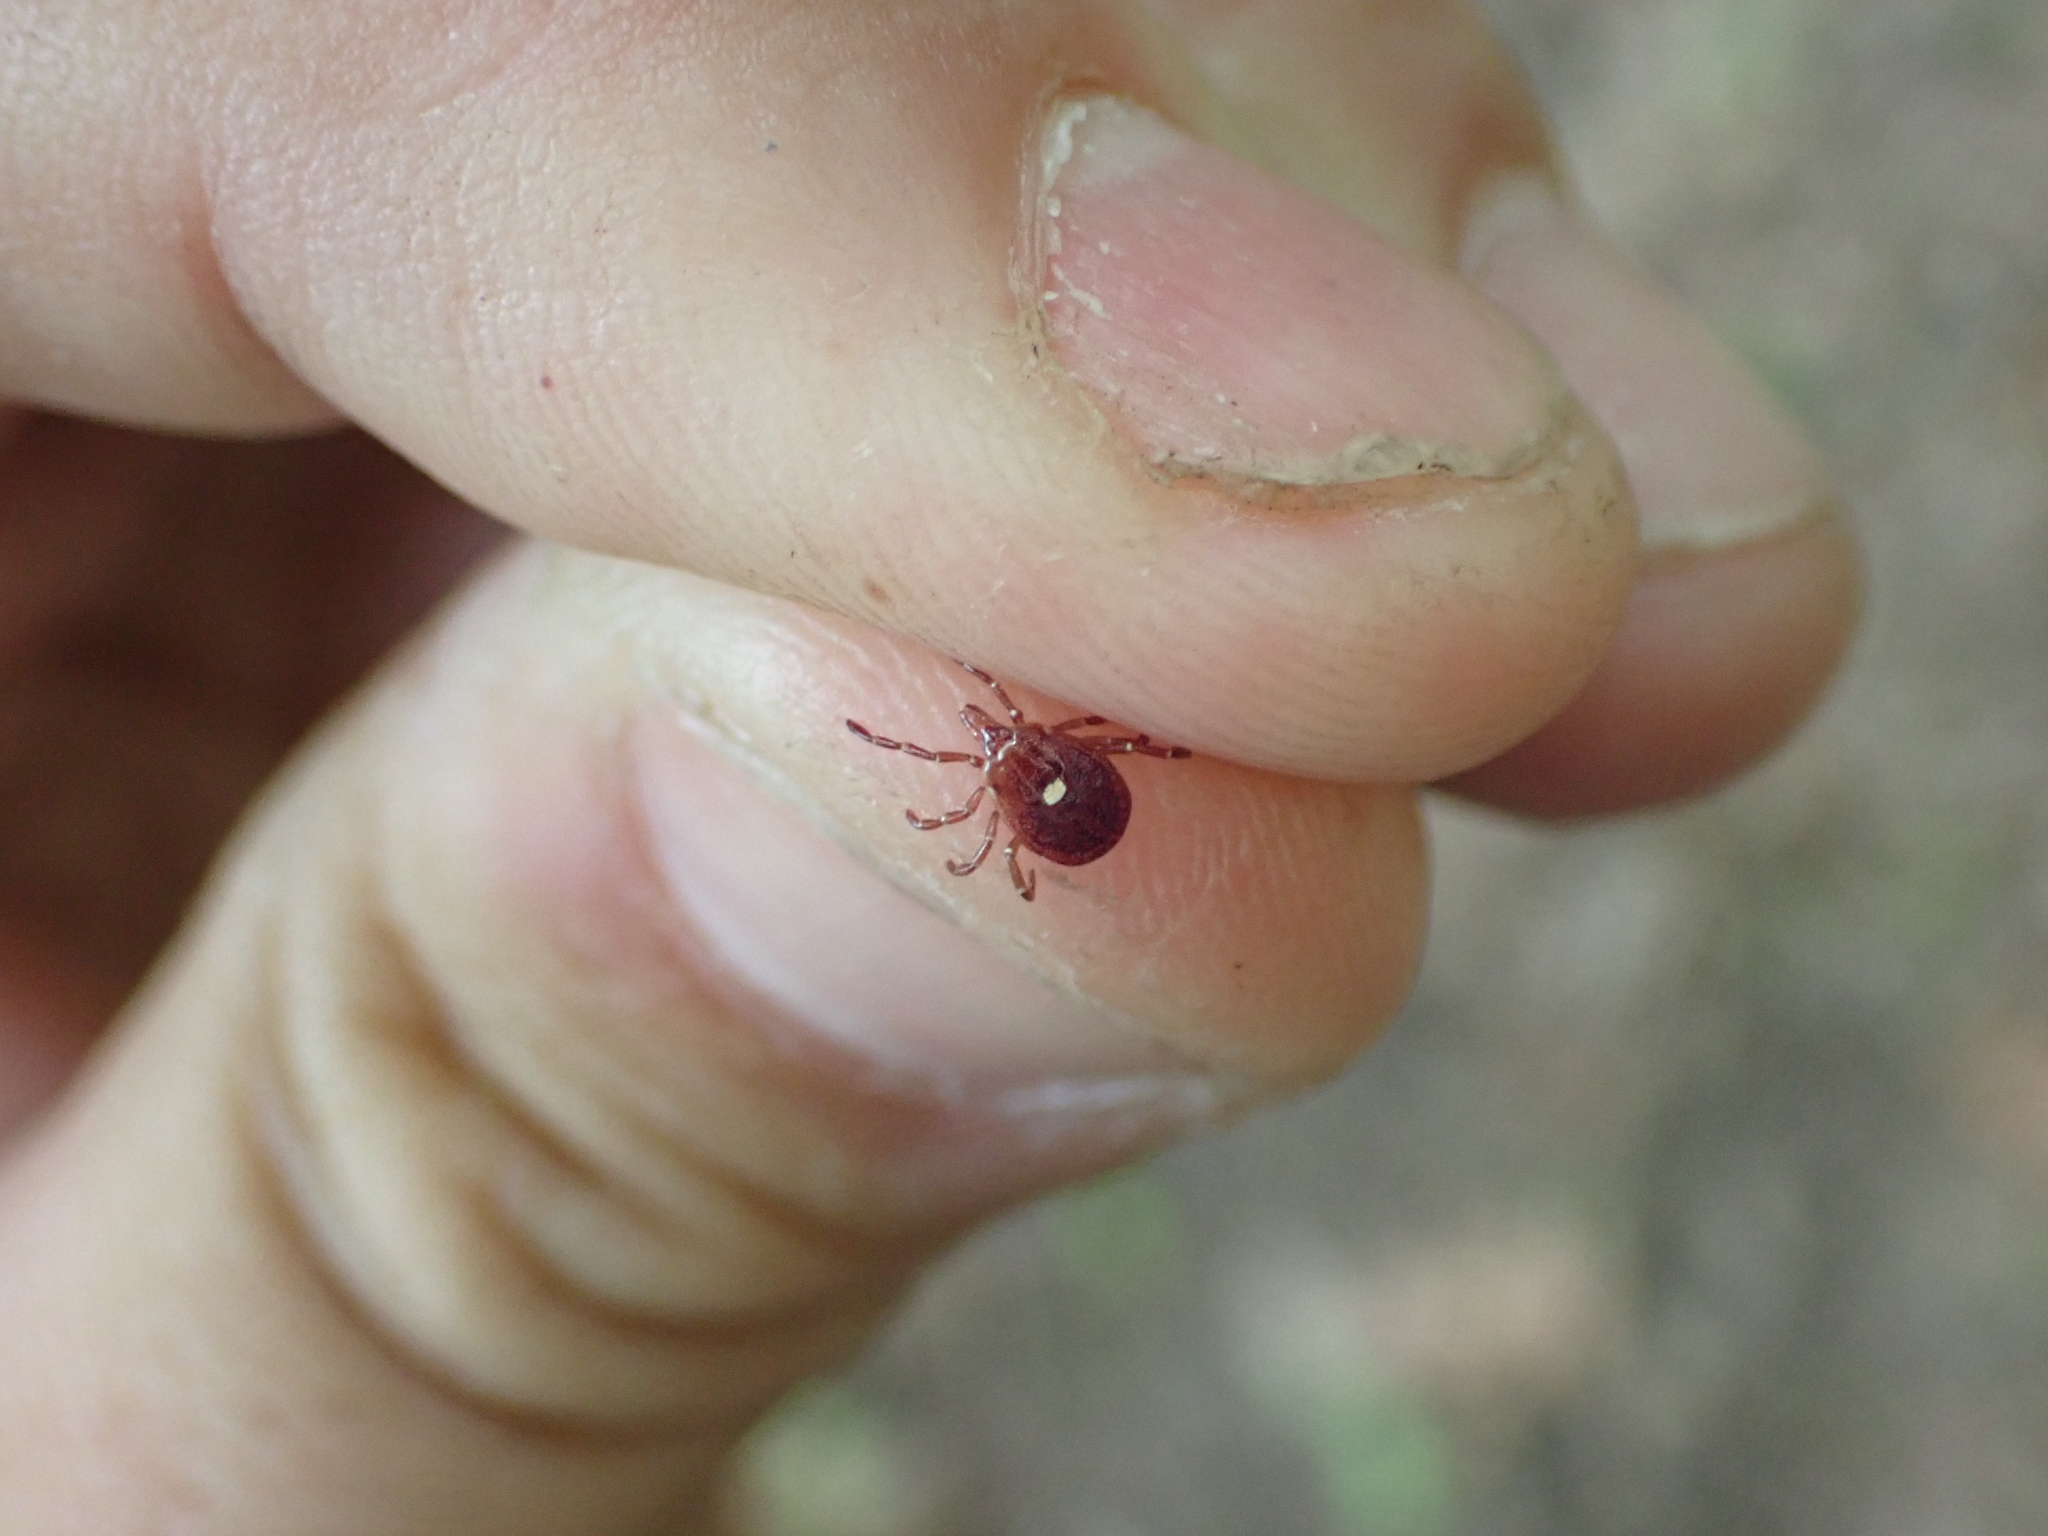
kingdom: Animalia
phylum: Arthropoda
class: Arachnida
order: Ixodida
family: Ixodidae
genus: Amblyomma
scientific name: Amblyomma americanum
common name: Lone star tick
